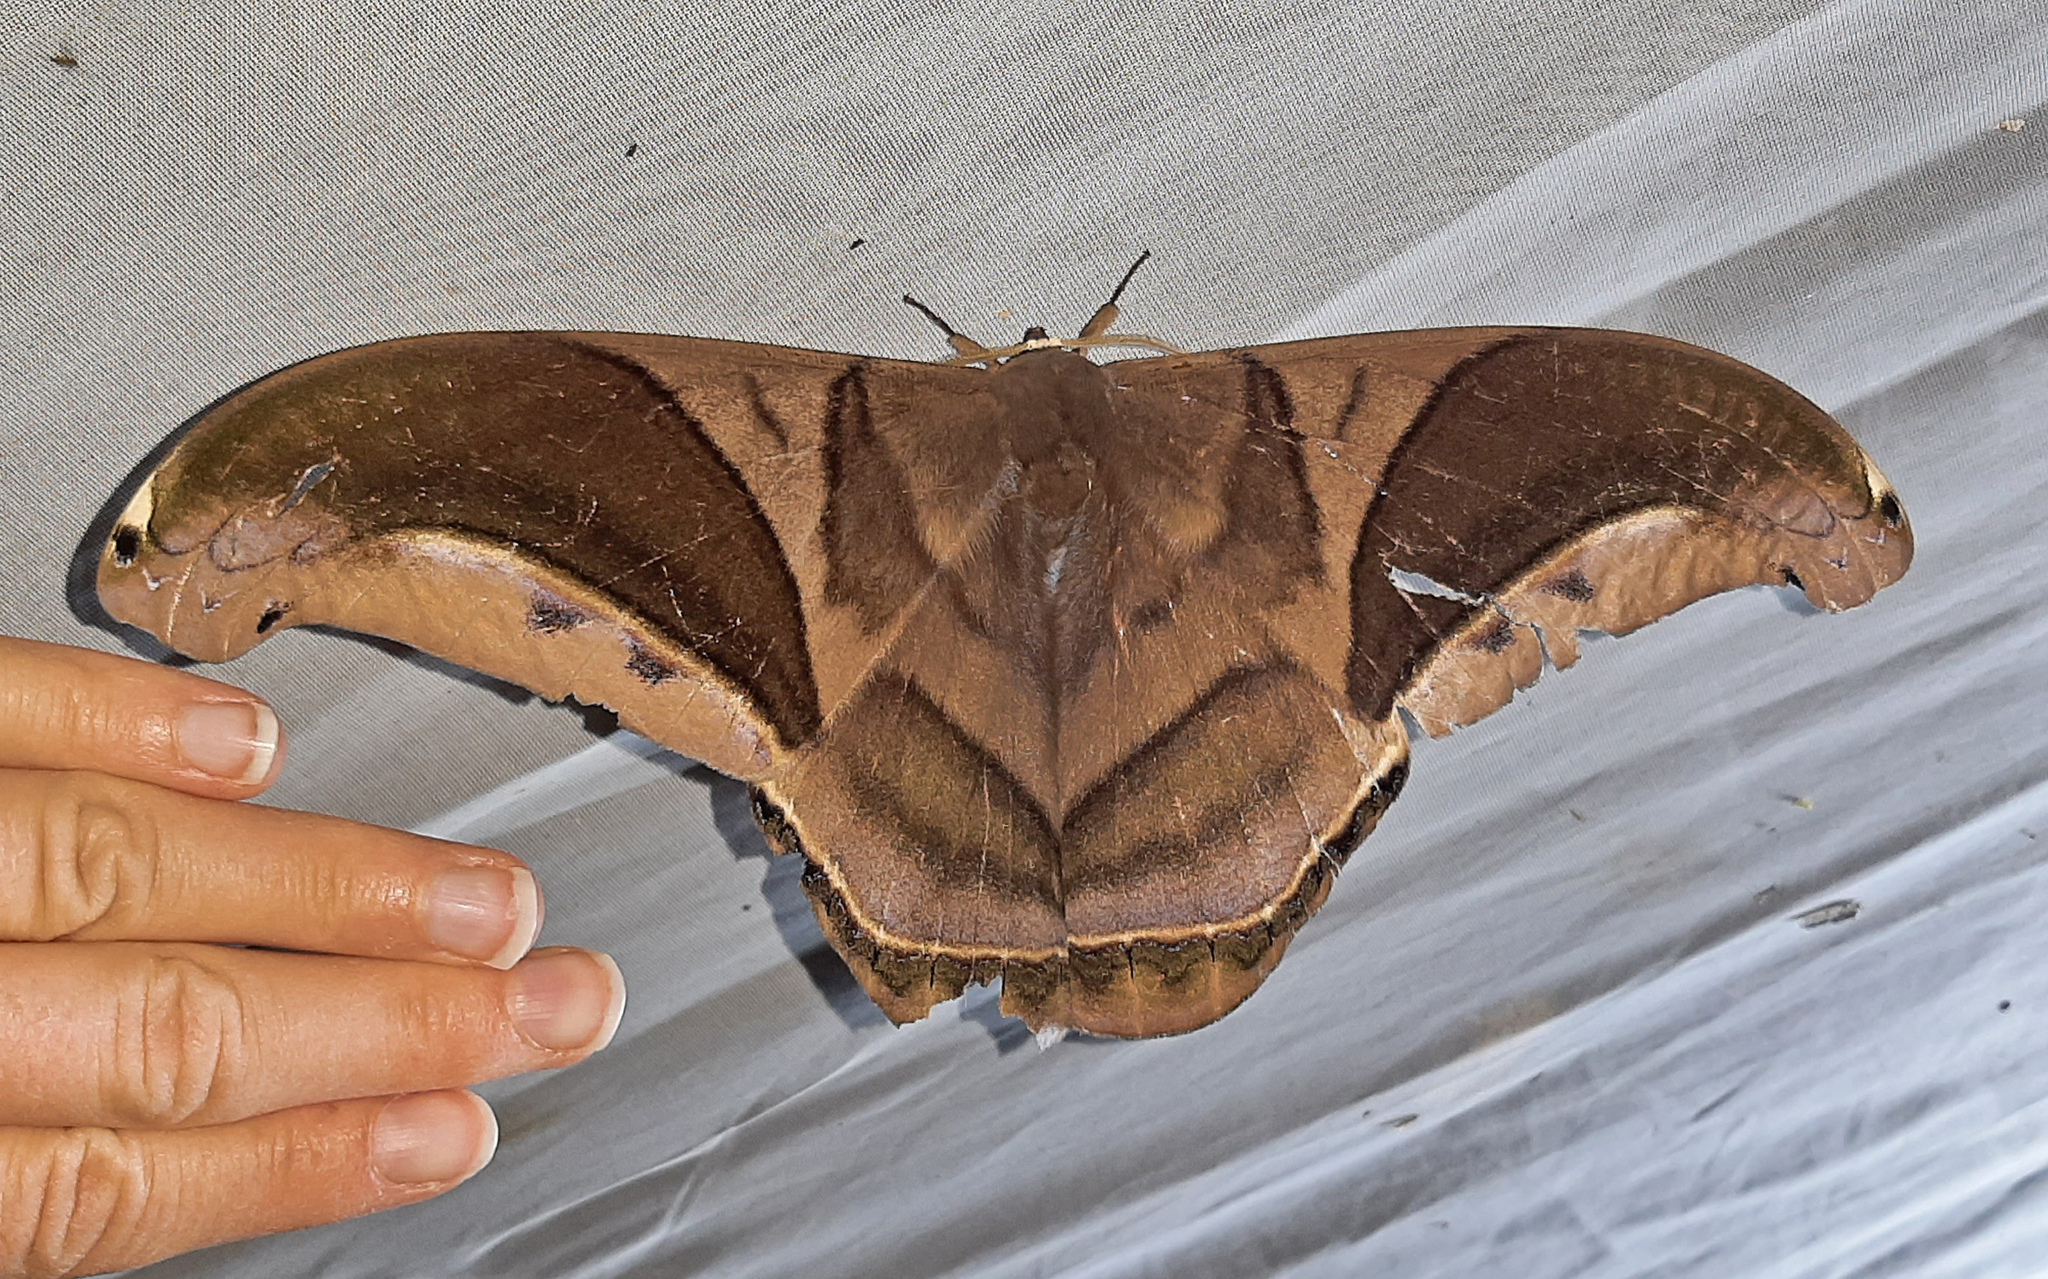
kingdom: Animalia
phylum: Arthropoda
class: Insecta
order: Lepidoptera
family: Saturniidae
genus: Rhescyntis
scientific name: Rhescyntis hippodamia
